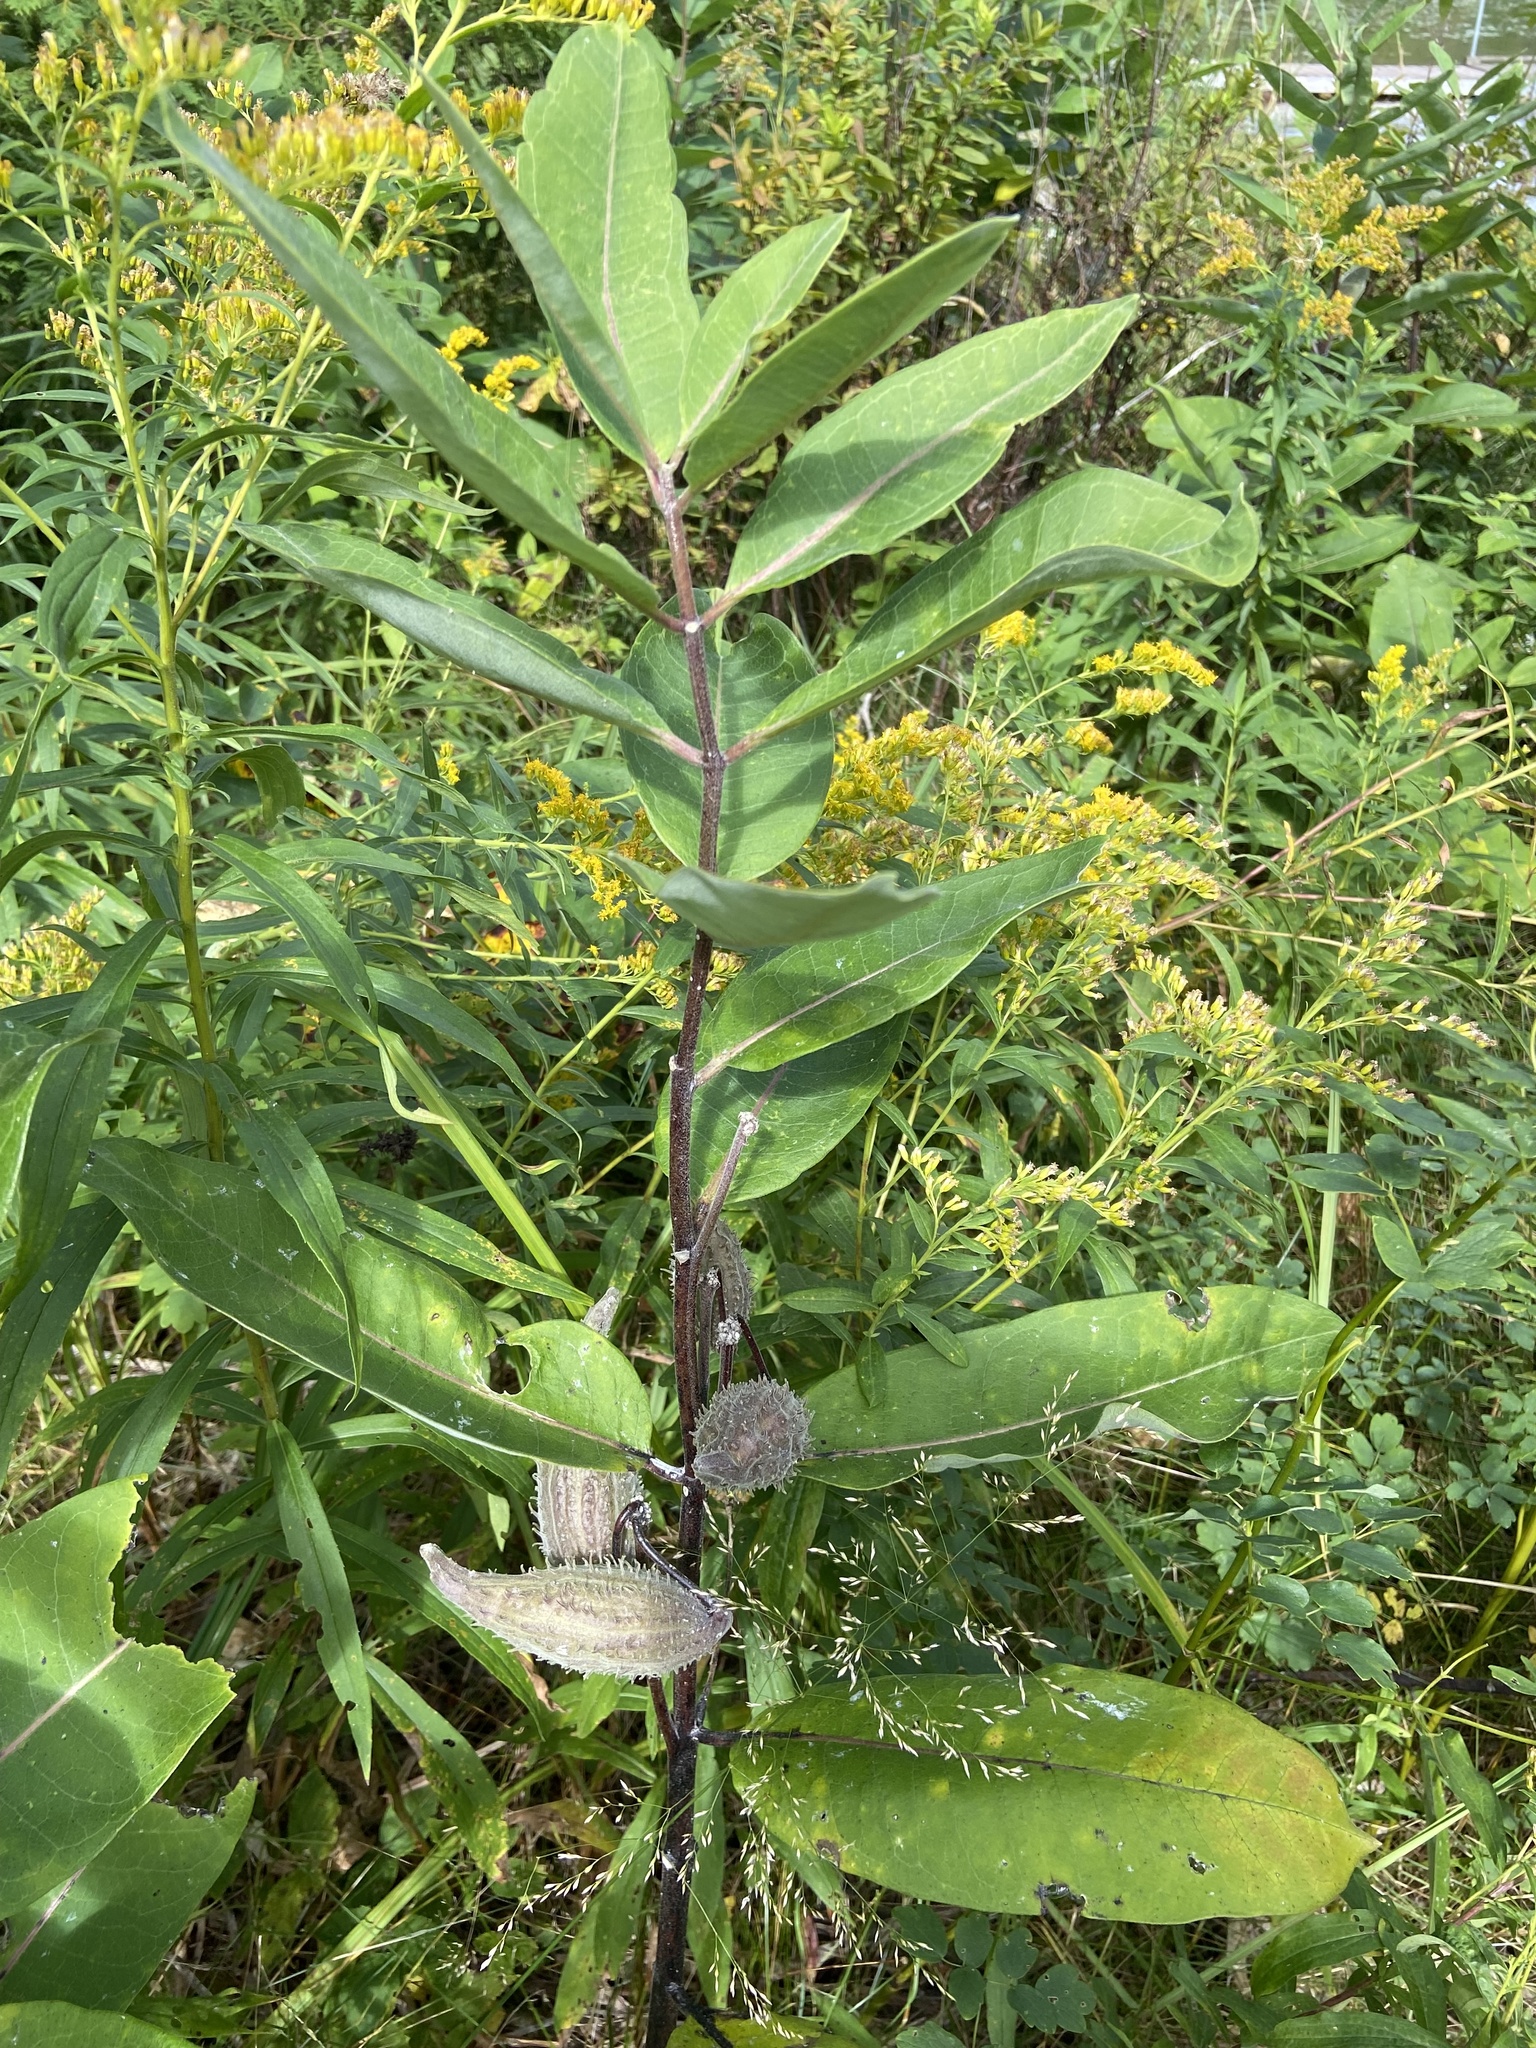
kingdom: Plantae
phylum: Tracheophyta
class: Magnoliopsida
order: Gentianales
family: Apocynaceae
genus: Asclepias
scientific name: Asclepias syriaca
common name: Common milkweed
